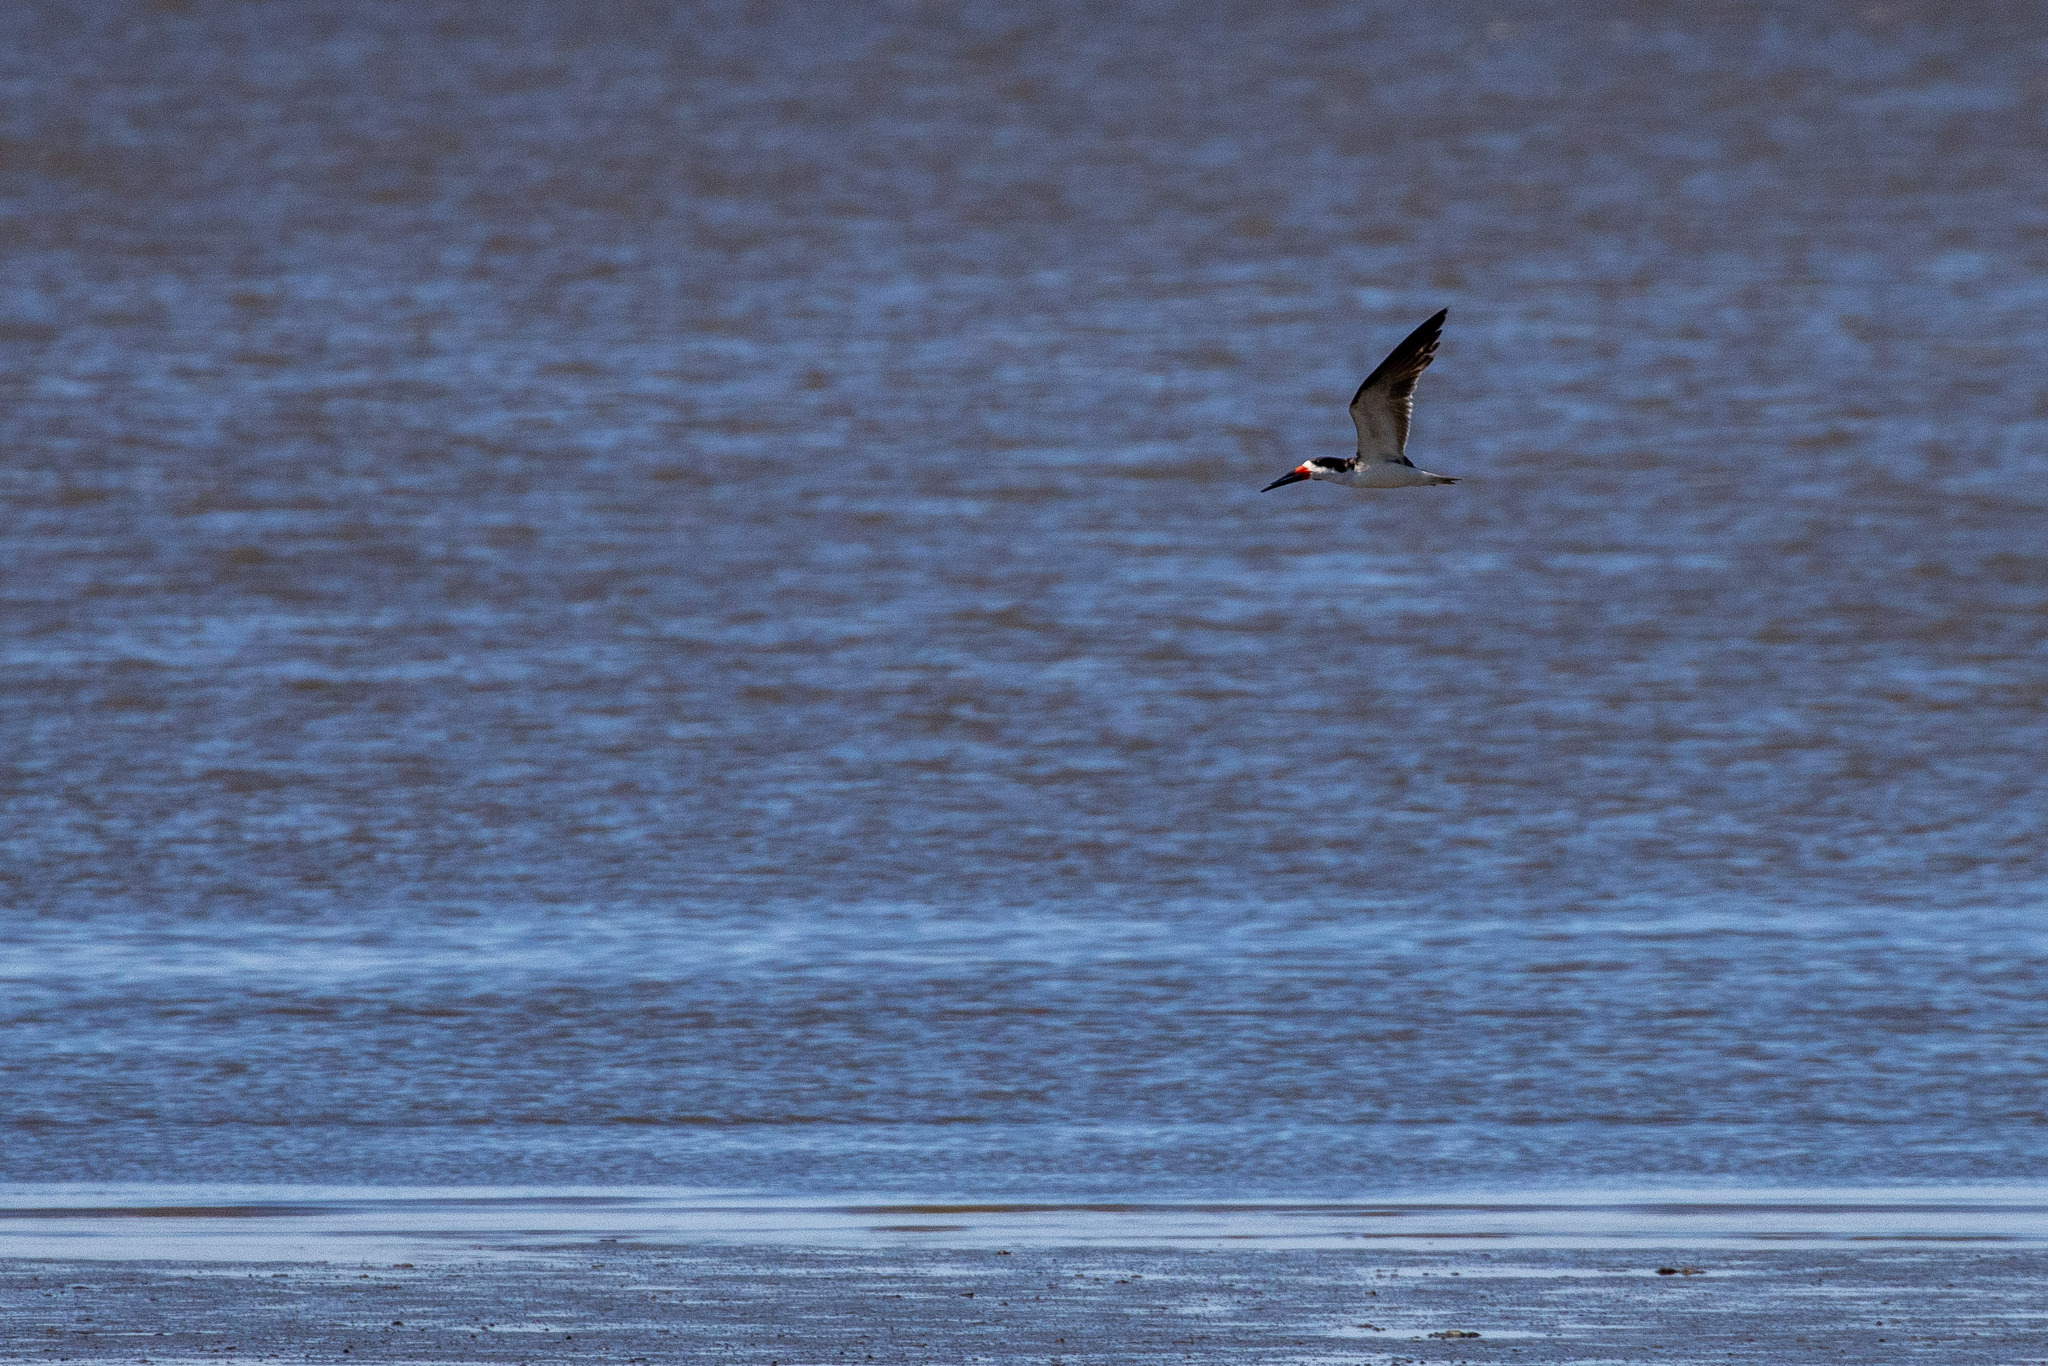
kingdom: Animalia
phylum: Chordata
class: Aves
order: Charadriiformes
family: Laridae
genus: Rynchops
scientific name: Rynchops niger
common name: Black skimmer
